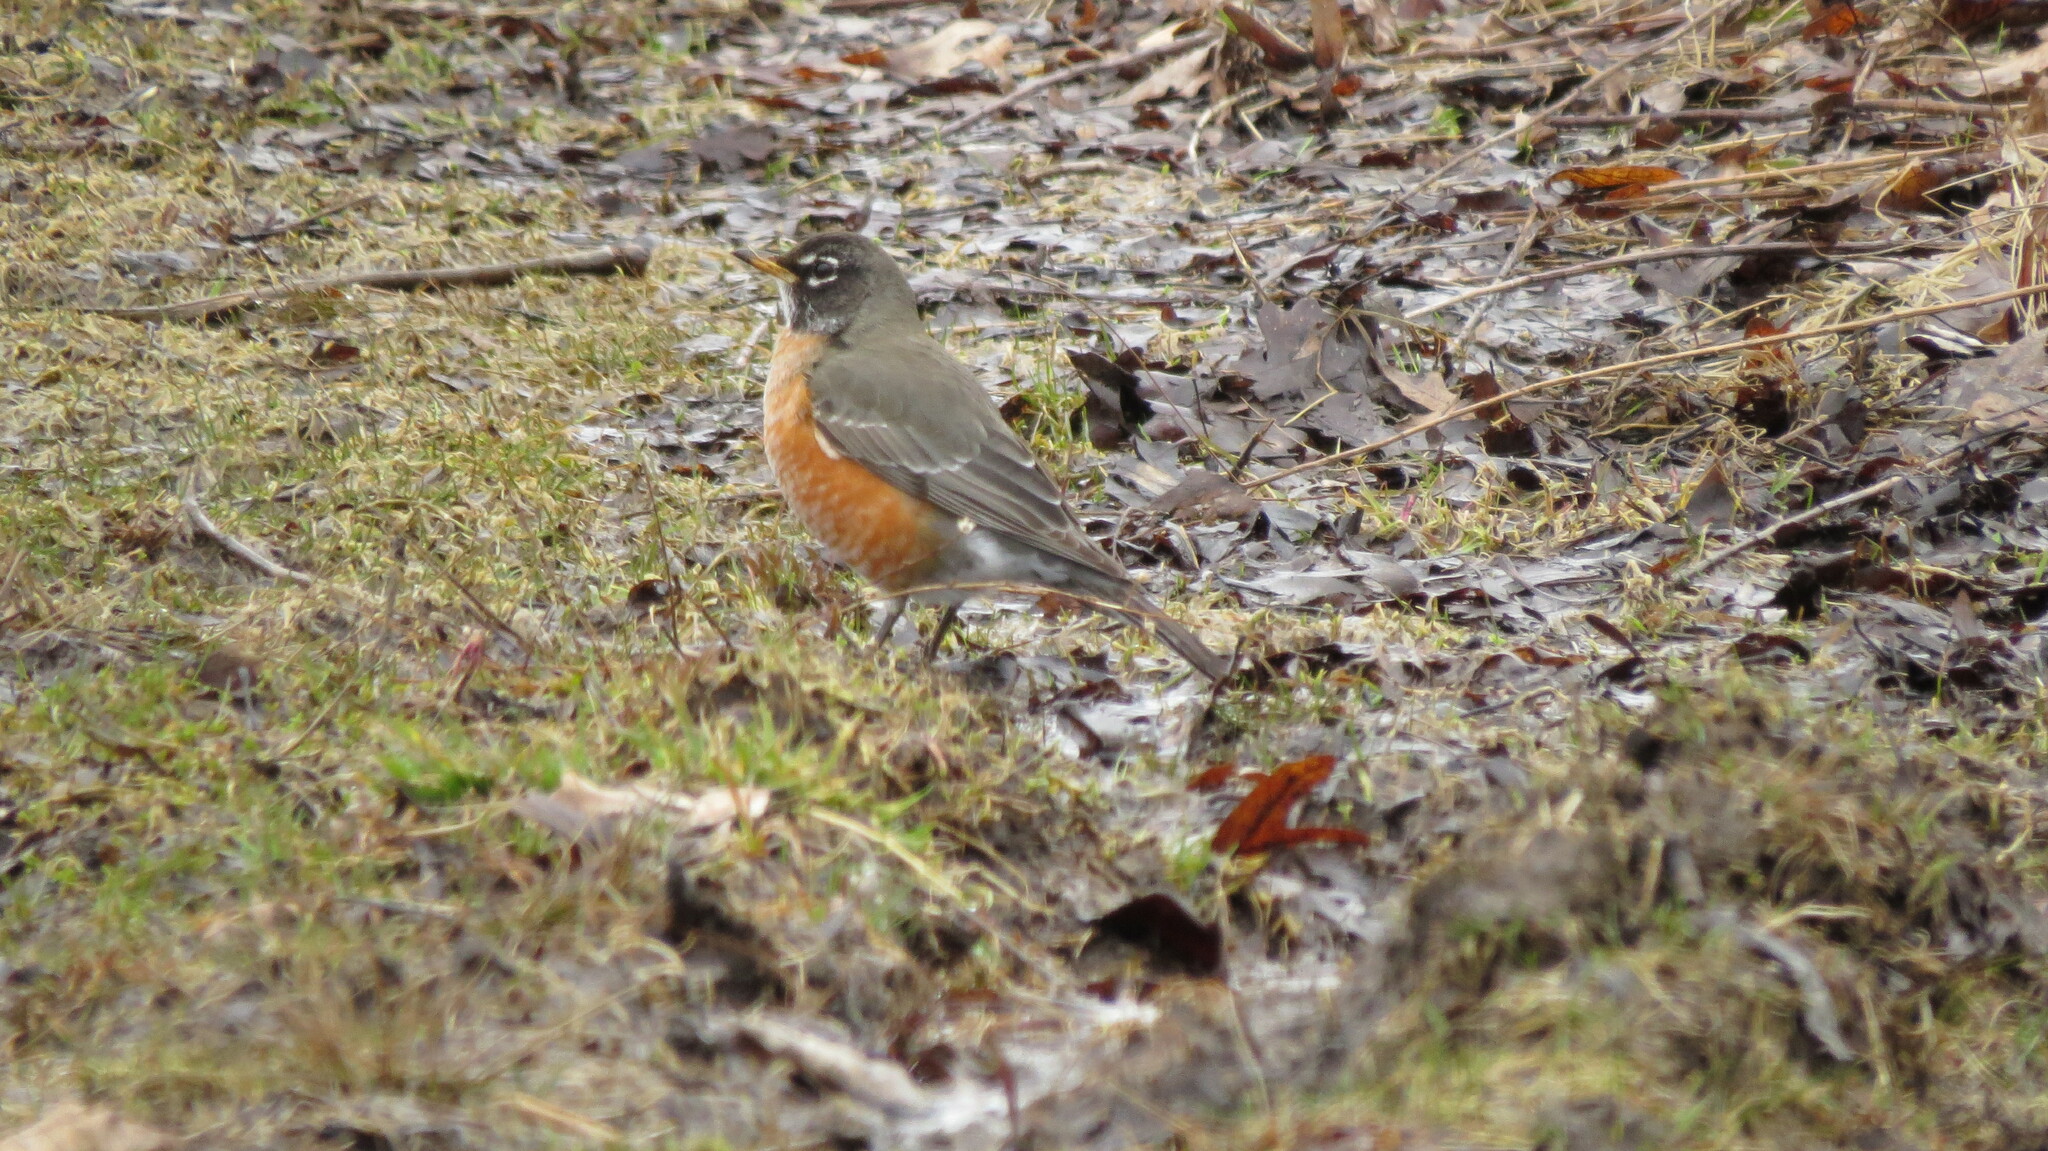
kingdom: Animalia
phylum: Chordata
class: Aves
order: Passeriformes
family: Turdidae
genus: Turdus
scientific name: Turdus migratorius
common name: American robin
